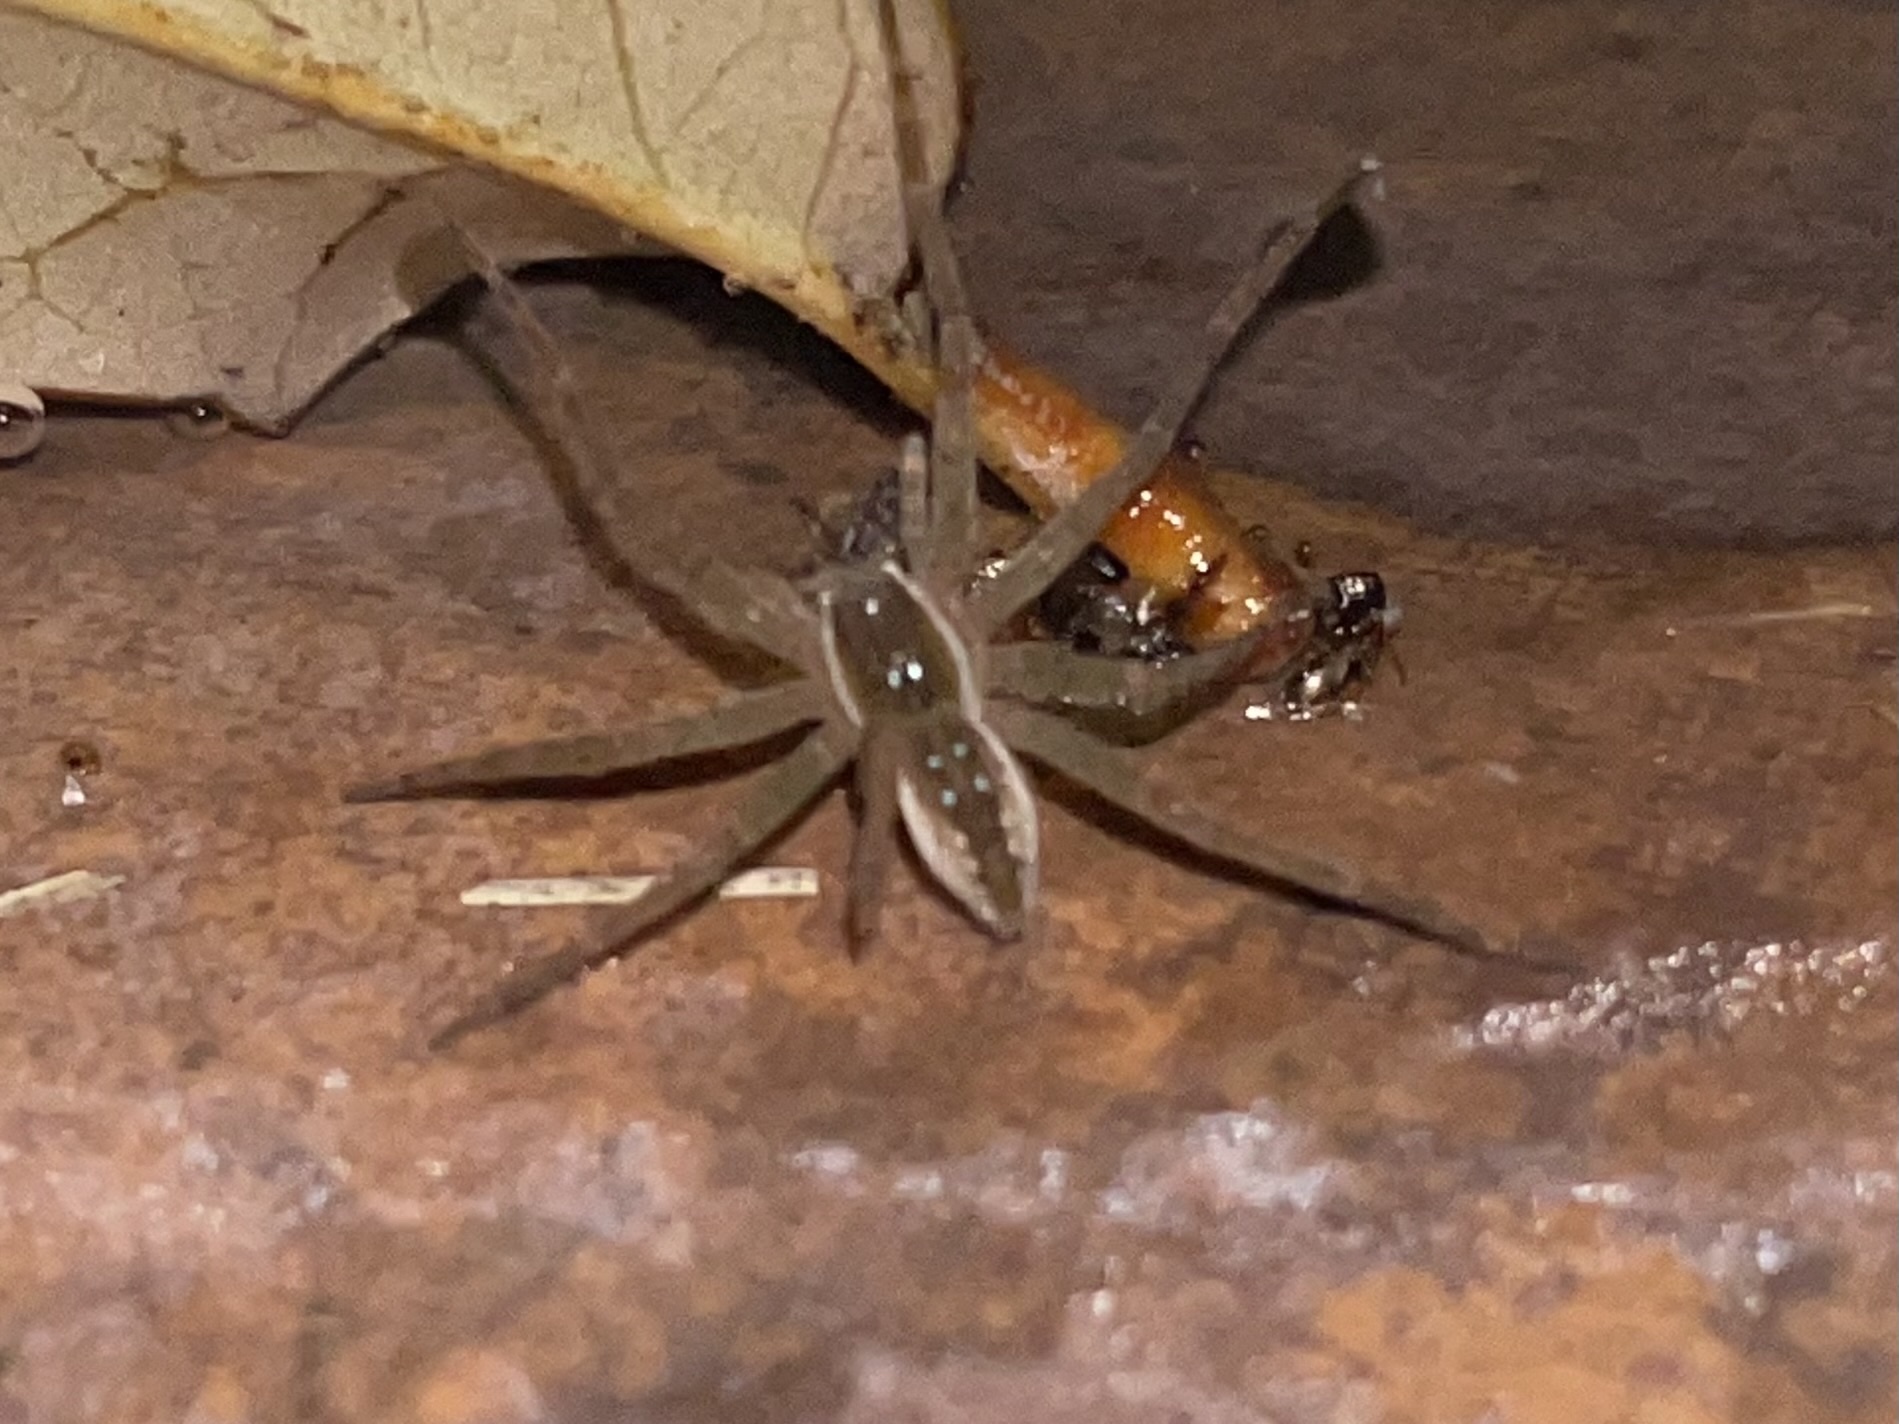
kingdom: Animalia
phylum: Arthropoda
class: Arachnida
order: Araneae
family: Pisauridae
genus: Dolomedes
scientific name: Dolomedes triton
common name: Six-spotted fishing spider
